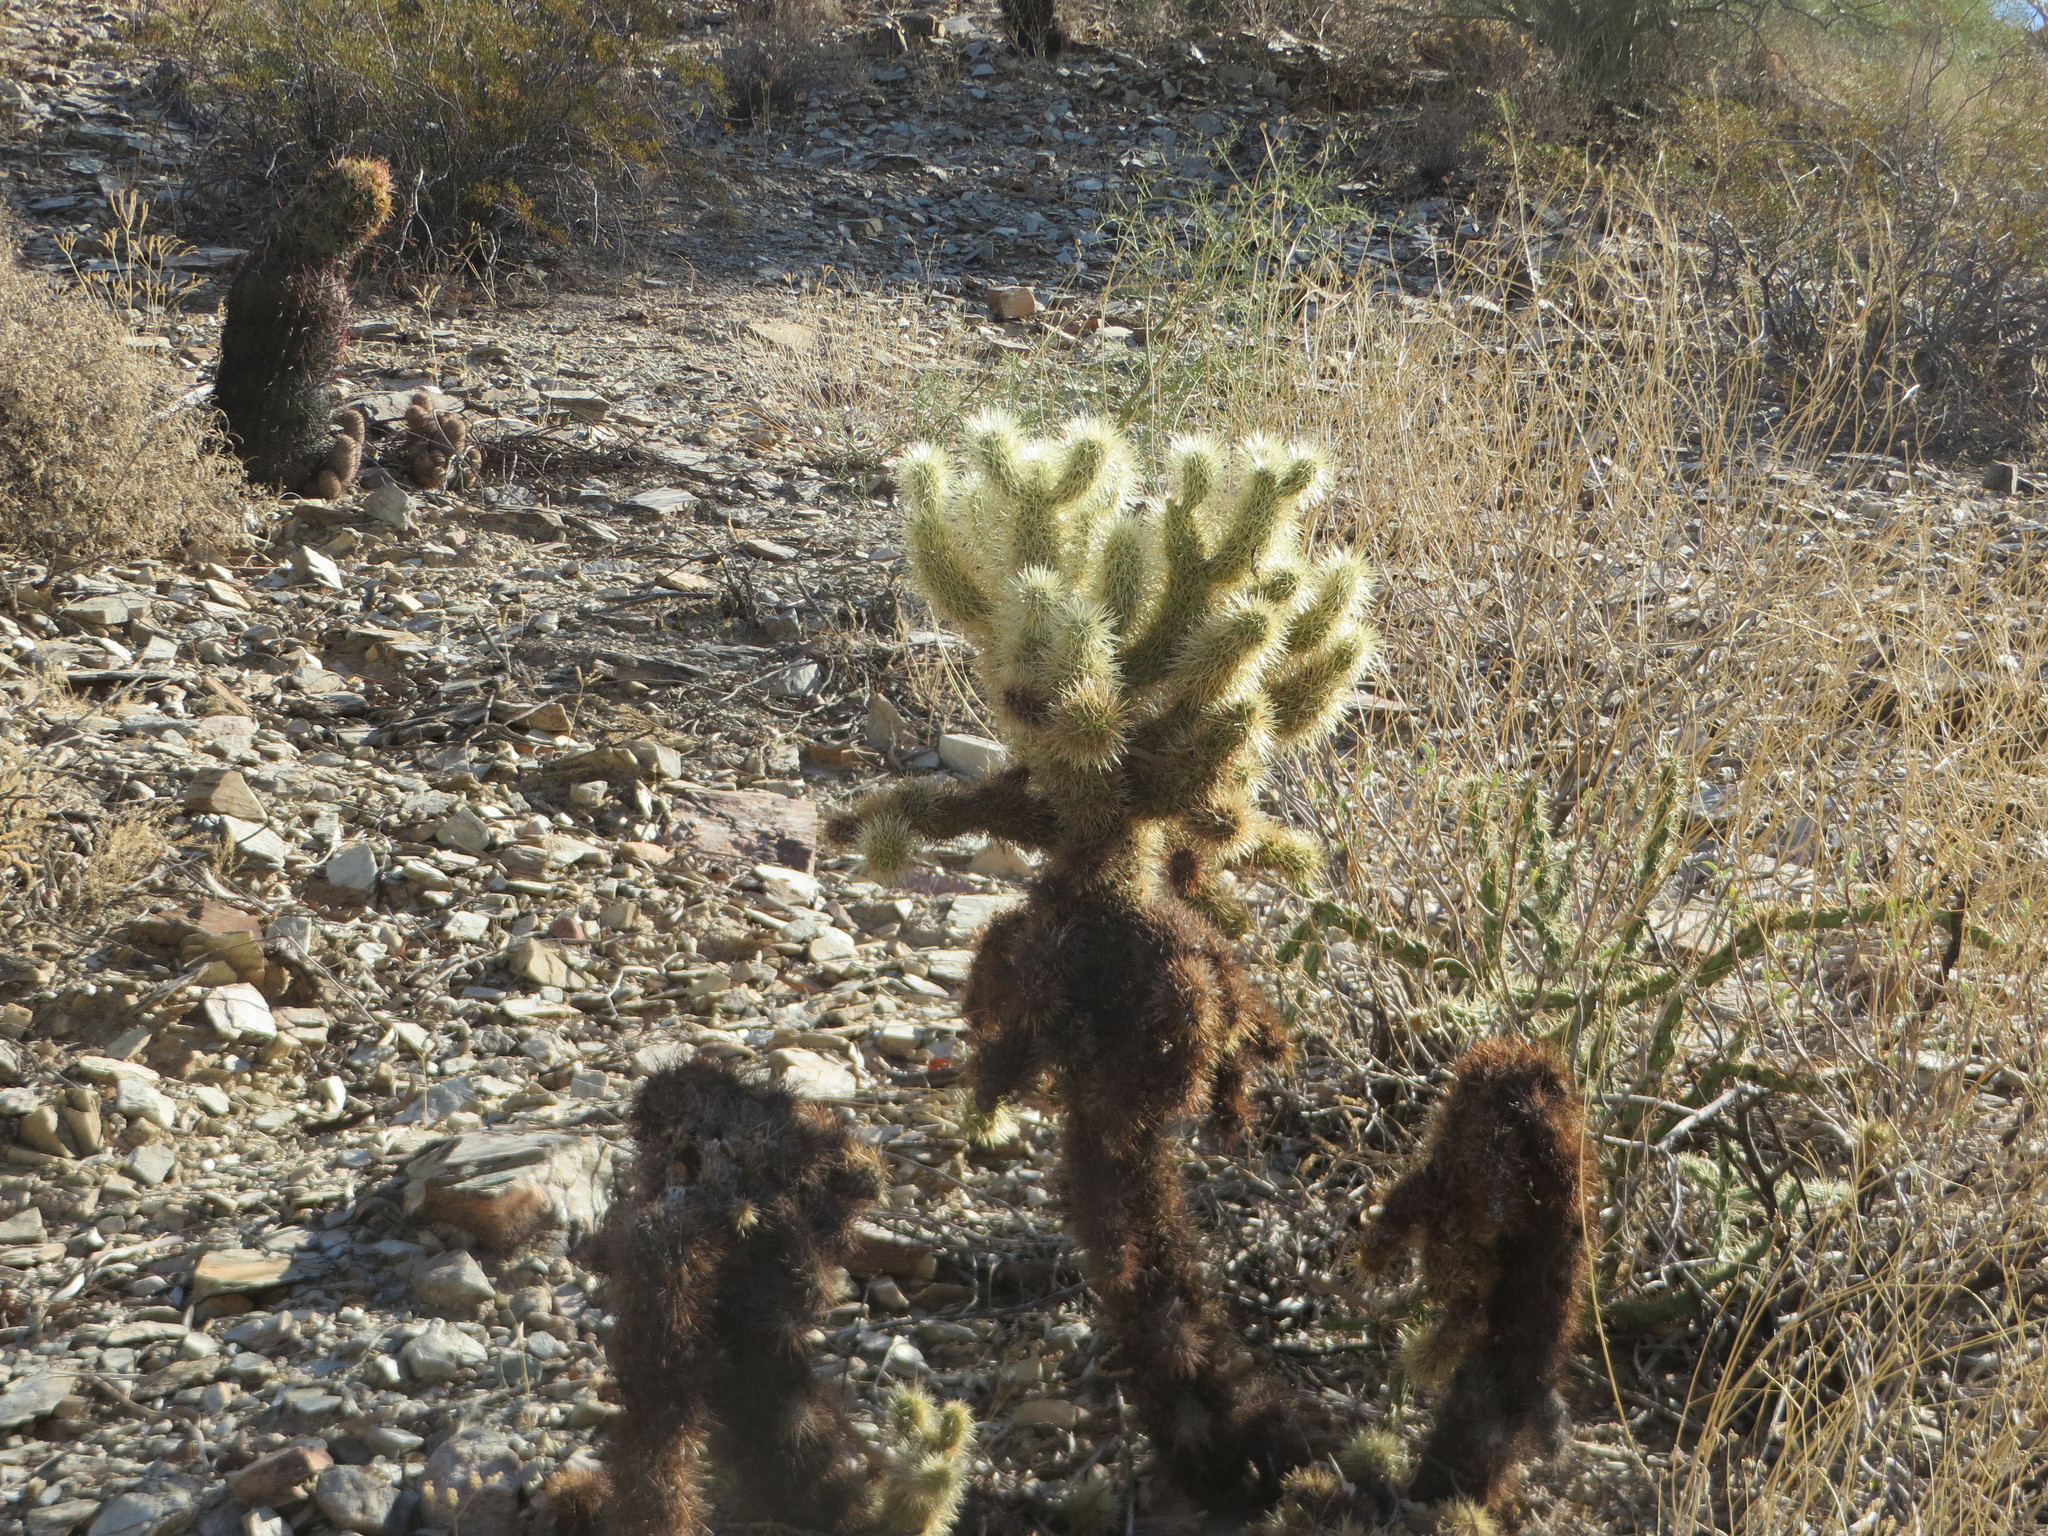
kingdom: Plantae
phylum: Tracheophyta
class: Magnoliopsida
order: Caryophyllales
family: Cactaceae
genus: Cylindropuntia
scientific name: Cylindropuntia fosbergii
